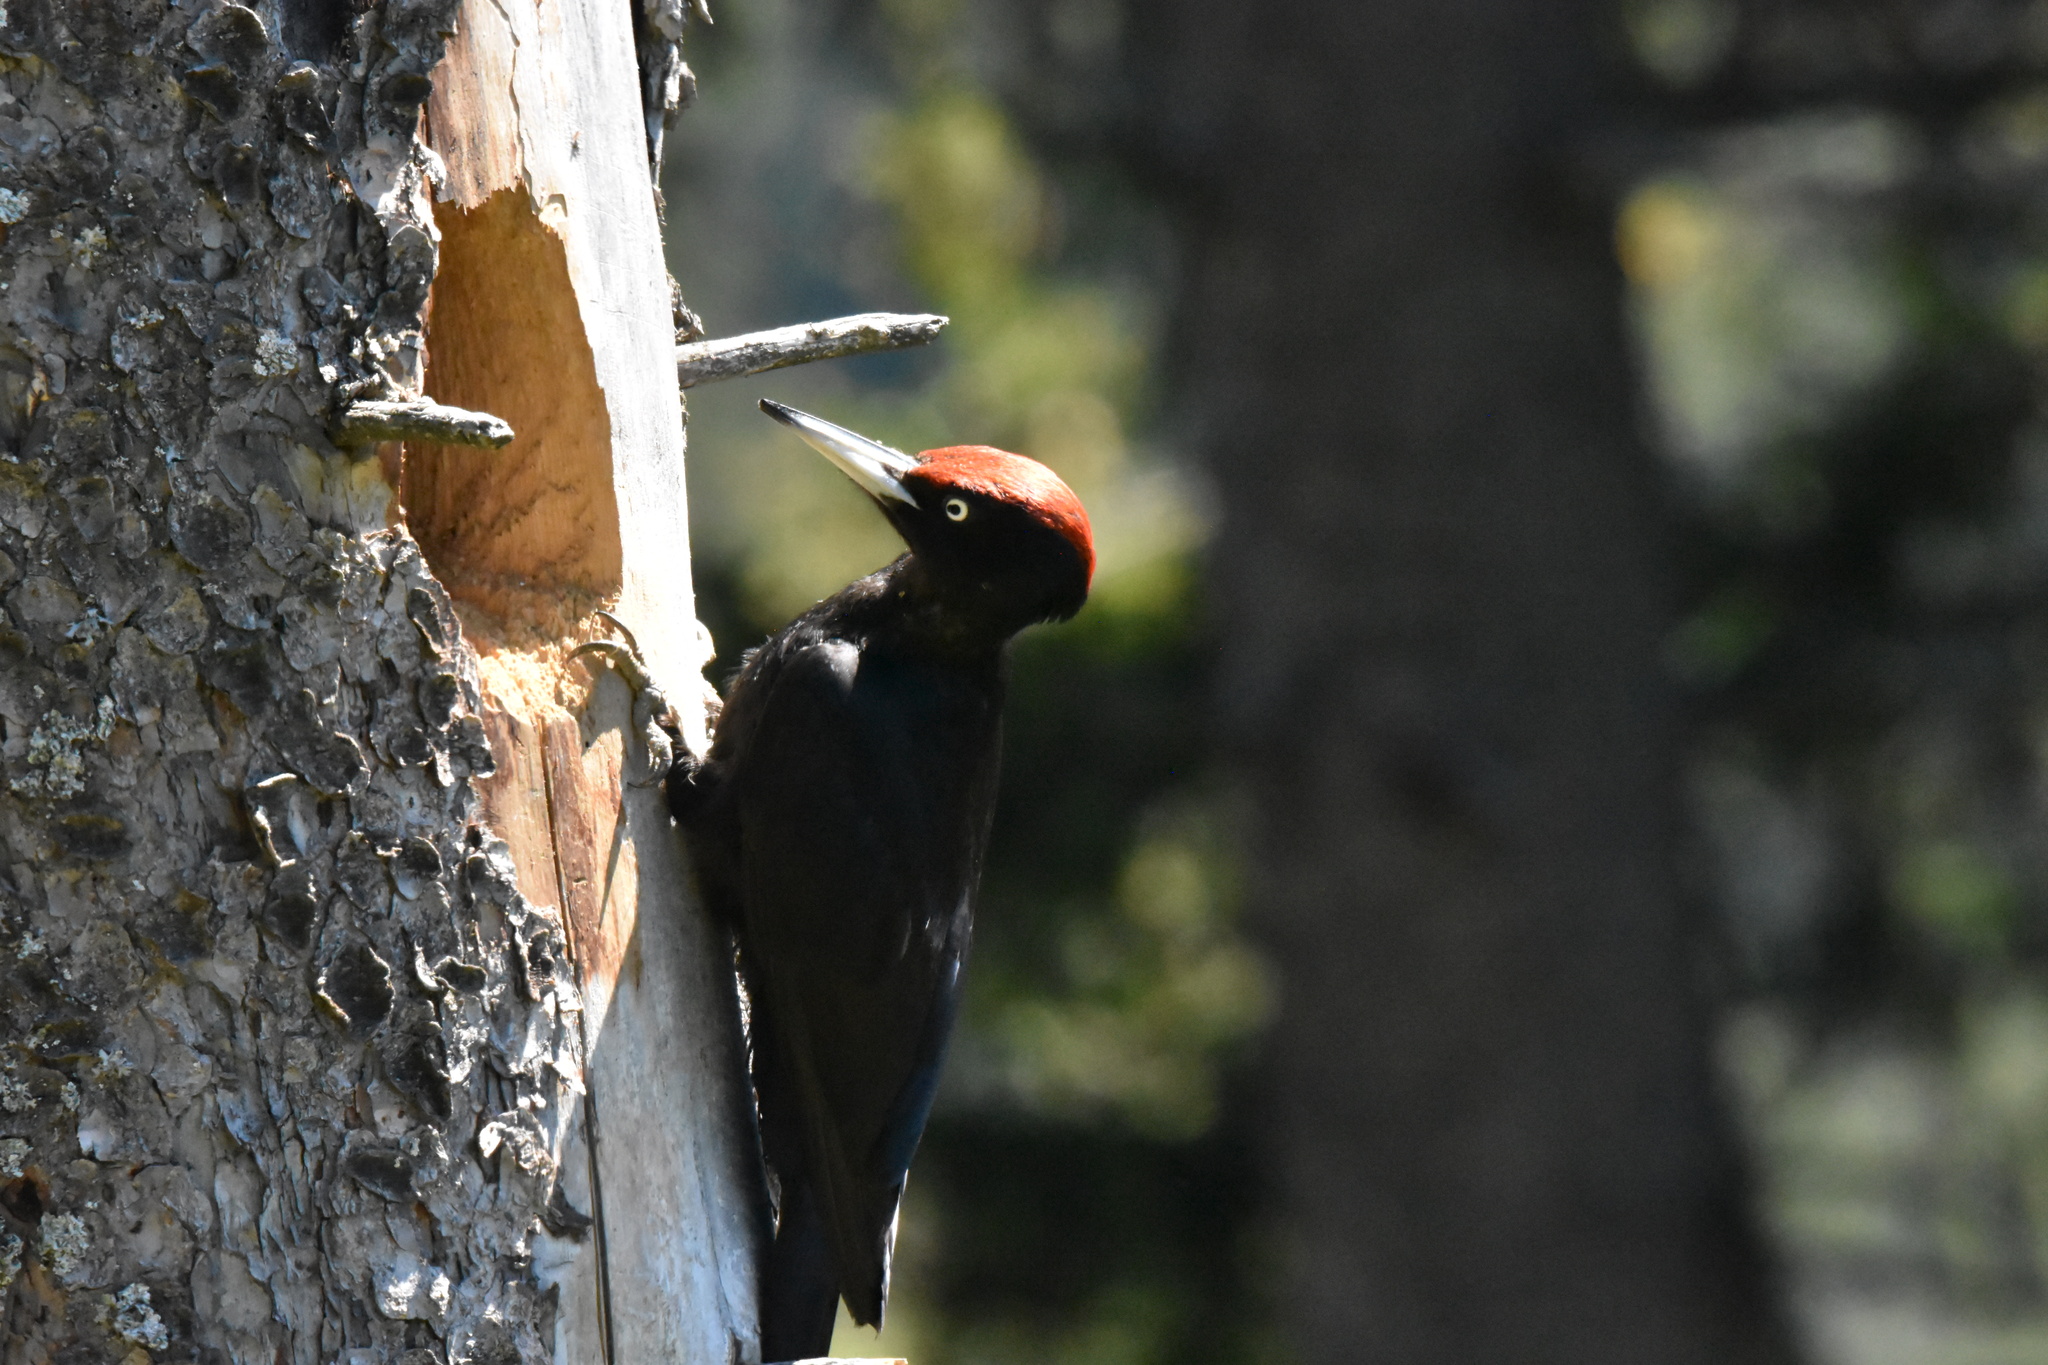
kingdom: Animalia
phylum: Chordata
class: Aves
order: Piciformes
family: Picidae
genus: Dryocopus
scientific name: Dryocopus martius
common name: Black woodpecker
